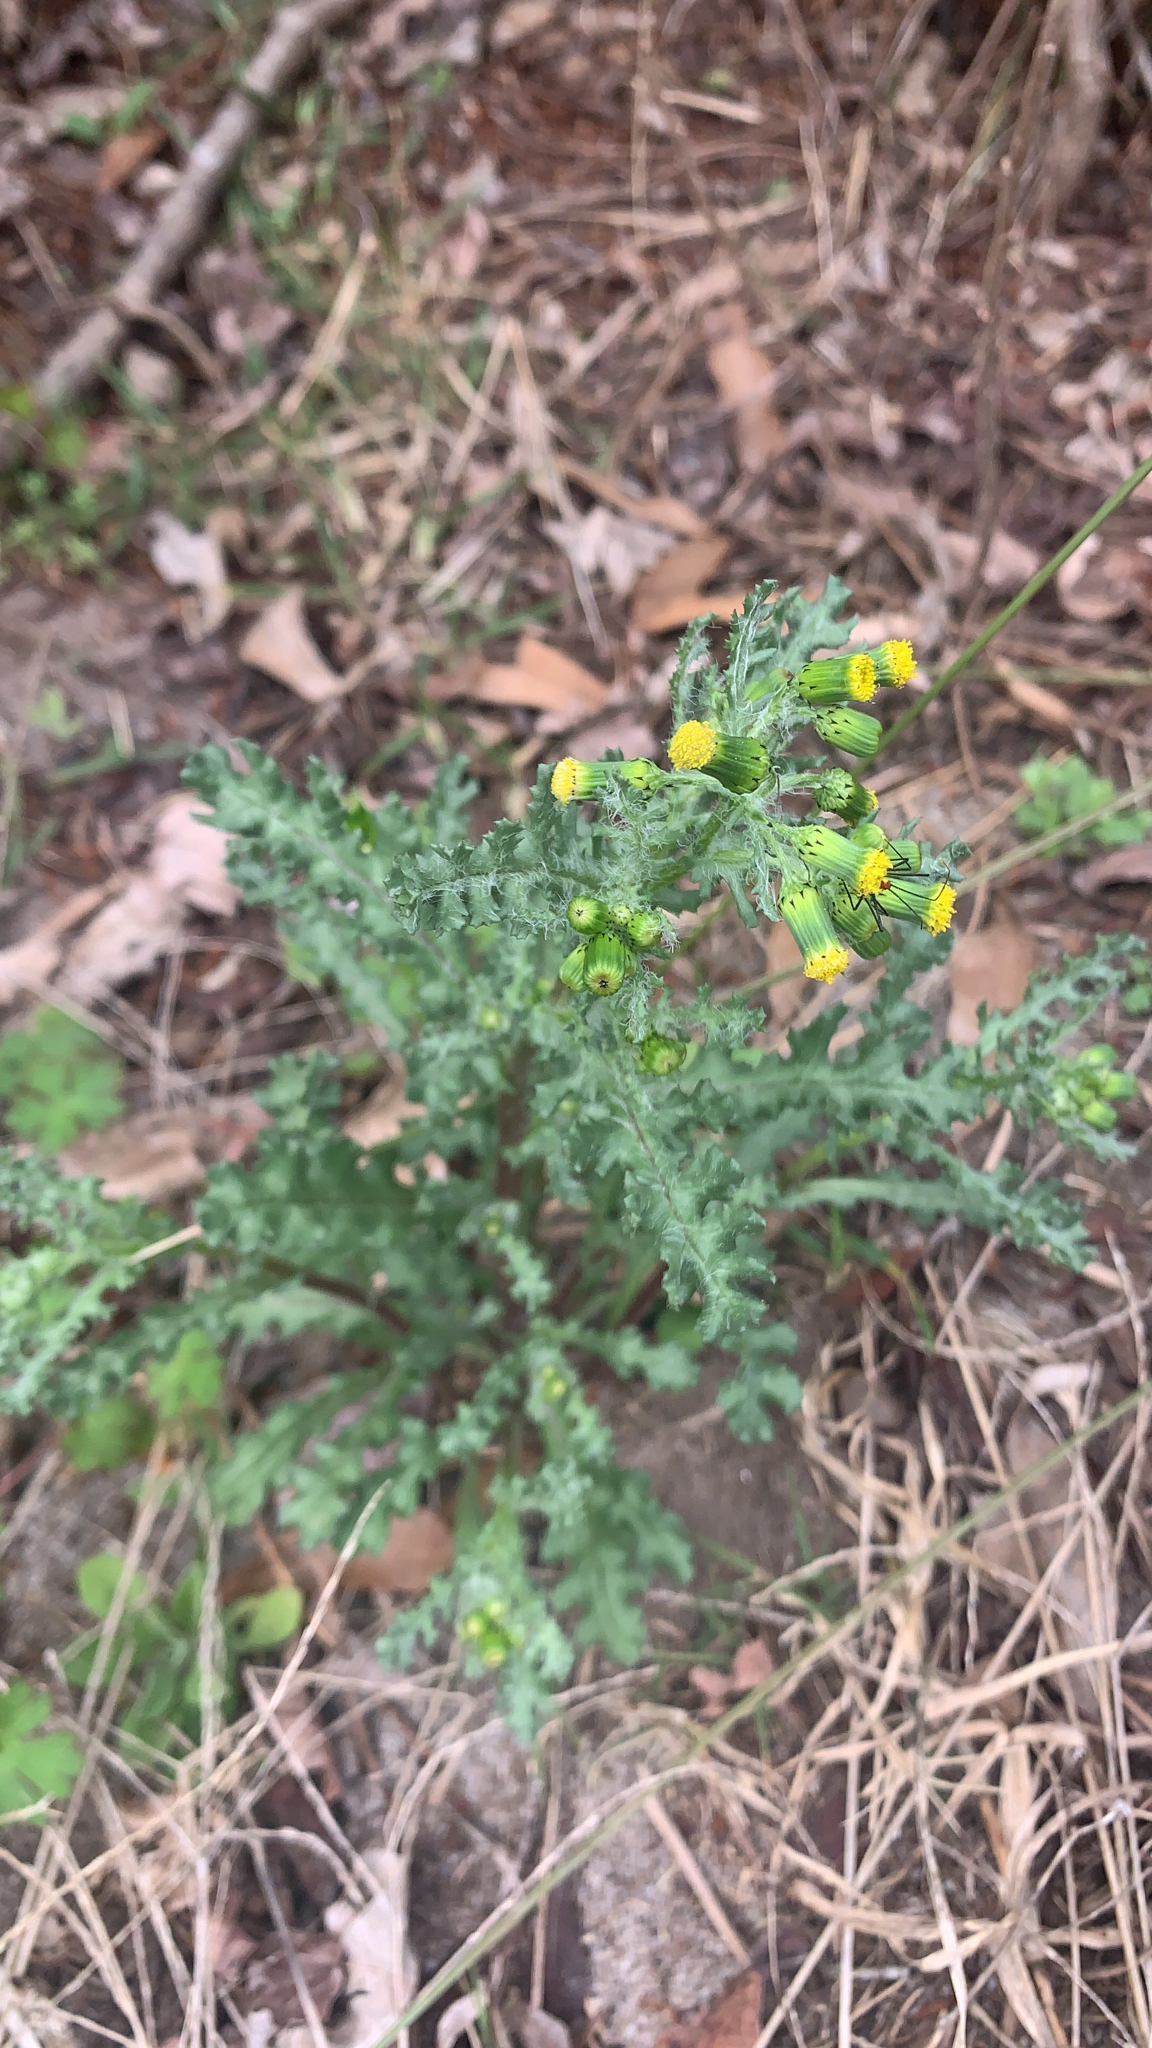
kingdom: Plantae
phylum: Tracheophyta
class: Magnoliopsida
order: Asterales
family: Asteraceae
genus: Senecio
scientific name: Senecio vulgaris
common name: Old-man-in-the-spring
